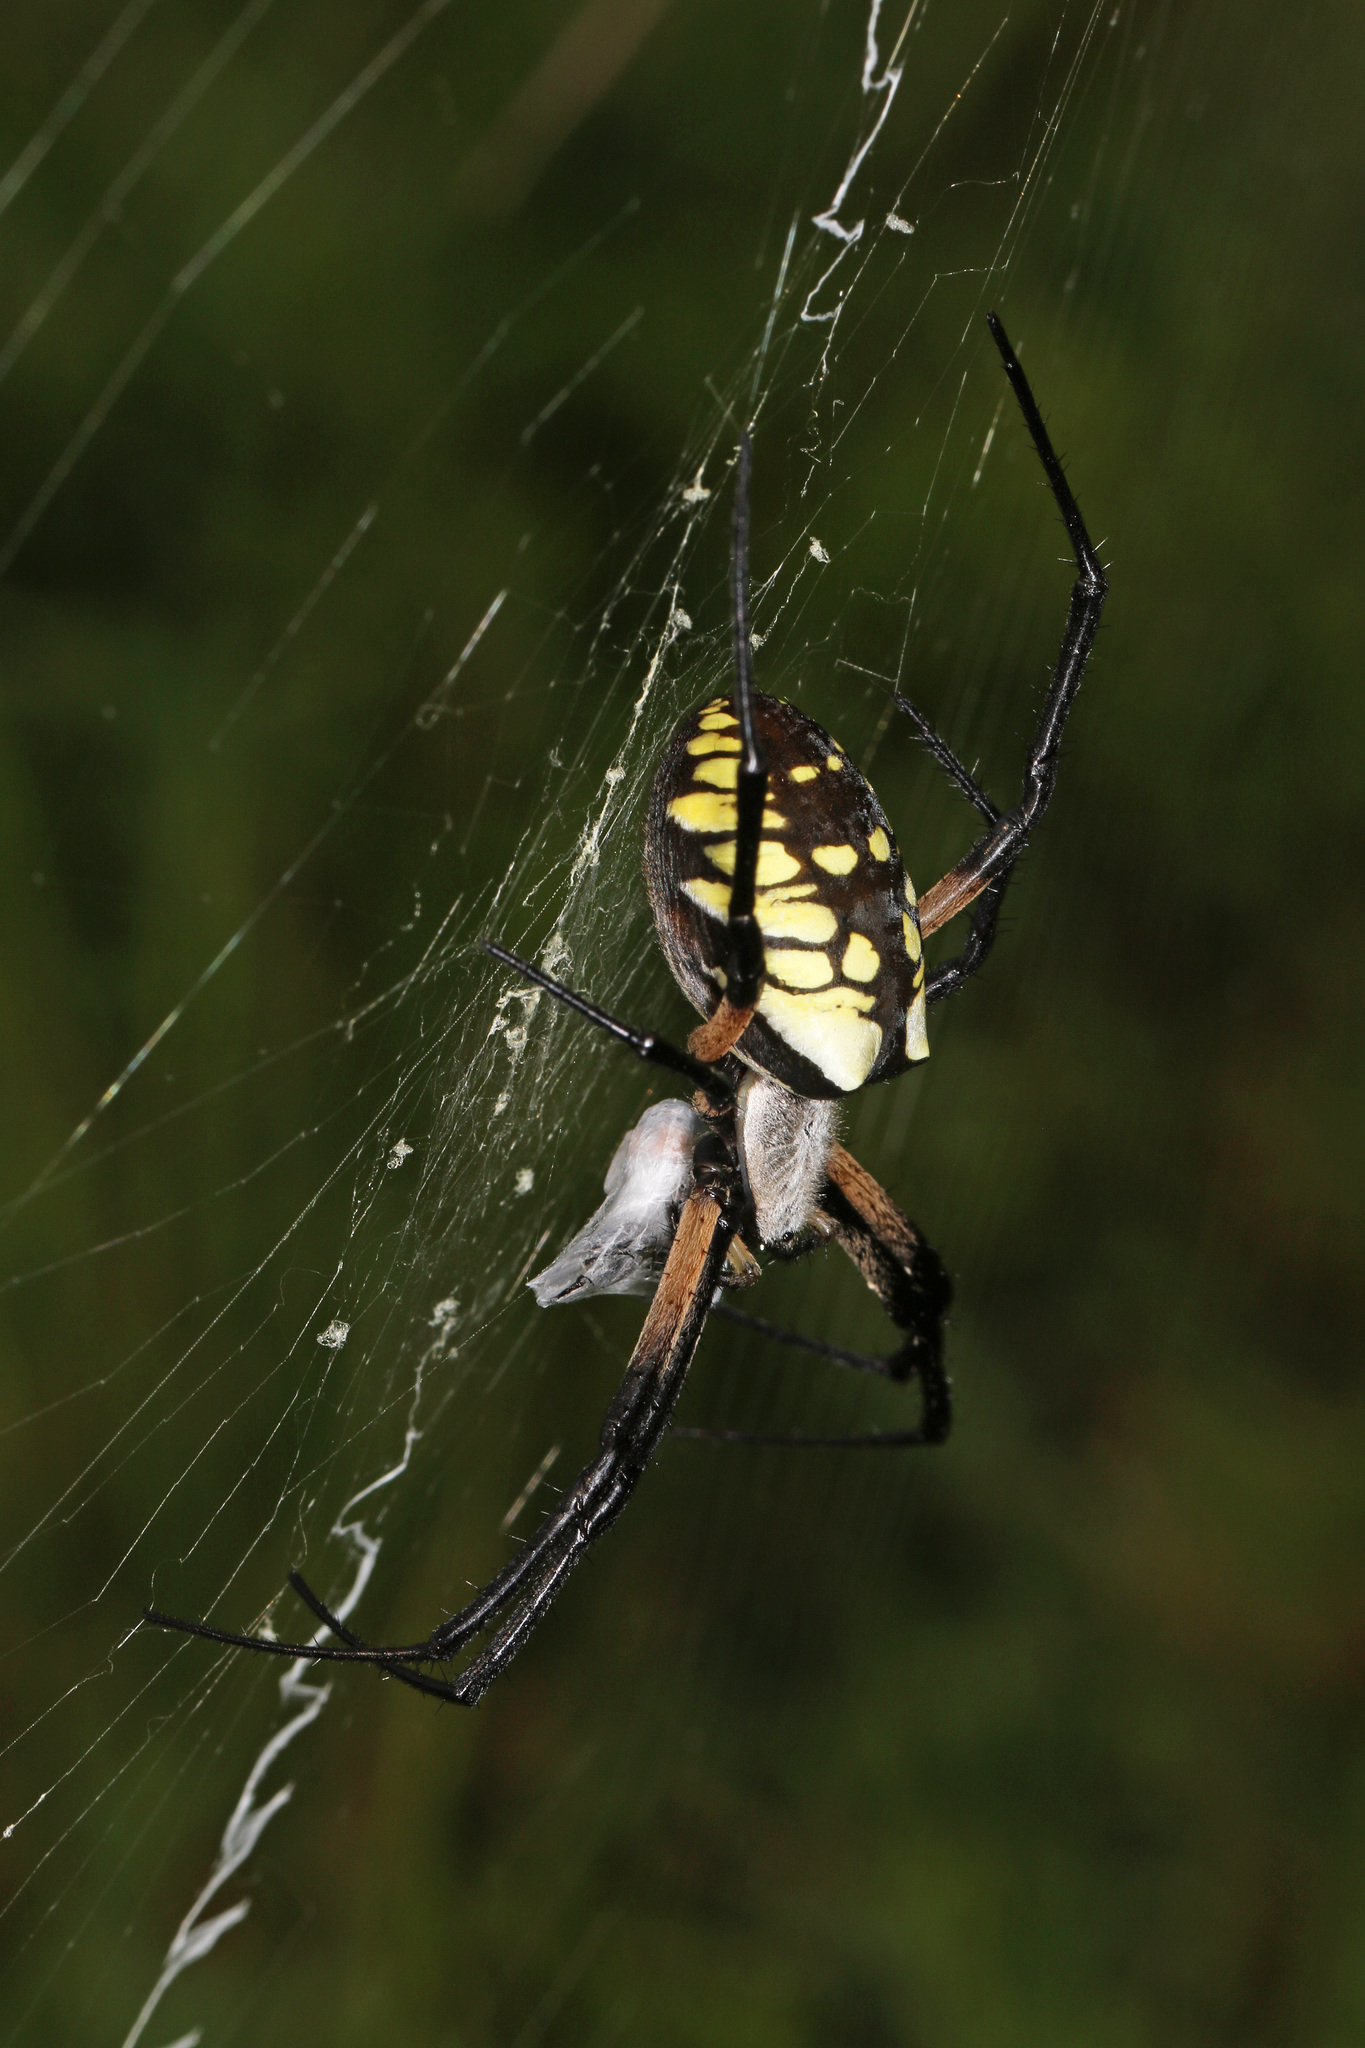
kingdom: Animalia
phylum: Arthropoda
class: Arachnida
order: Araneae
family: Araneidae
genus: Argiope
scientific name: Argiope aurantia
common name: Orb weavers
